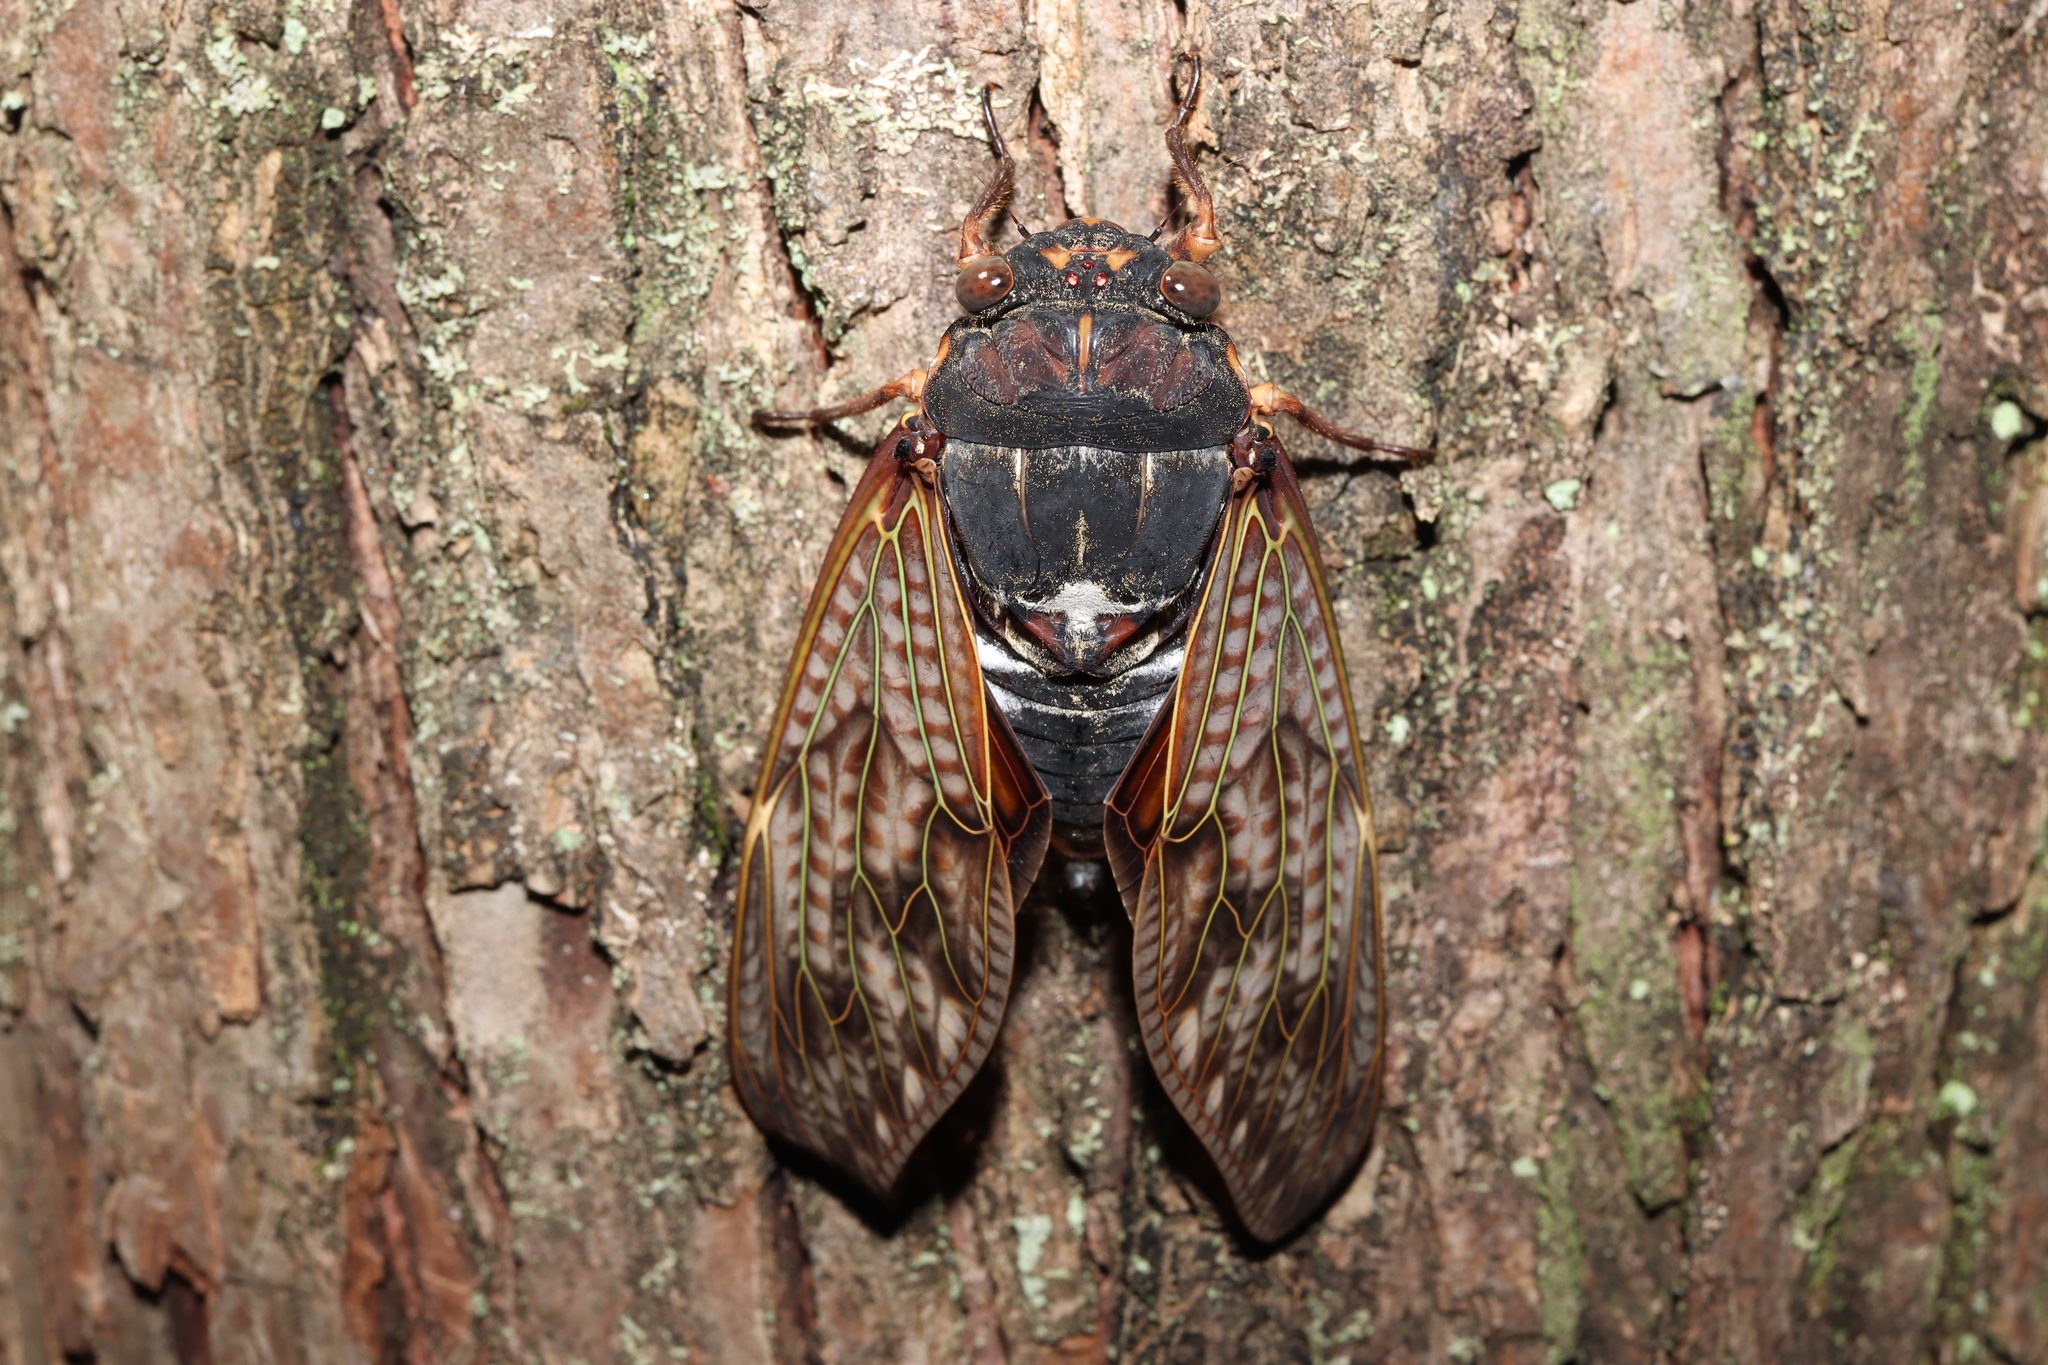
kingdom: Animalia
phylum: Arthropoda
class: Insecta
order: Hemiptera
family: Cicadidae
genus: Graptopsaltria
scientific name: Graptopsaltria nigrofuscata
